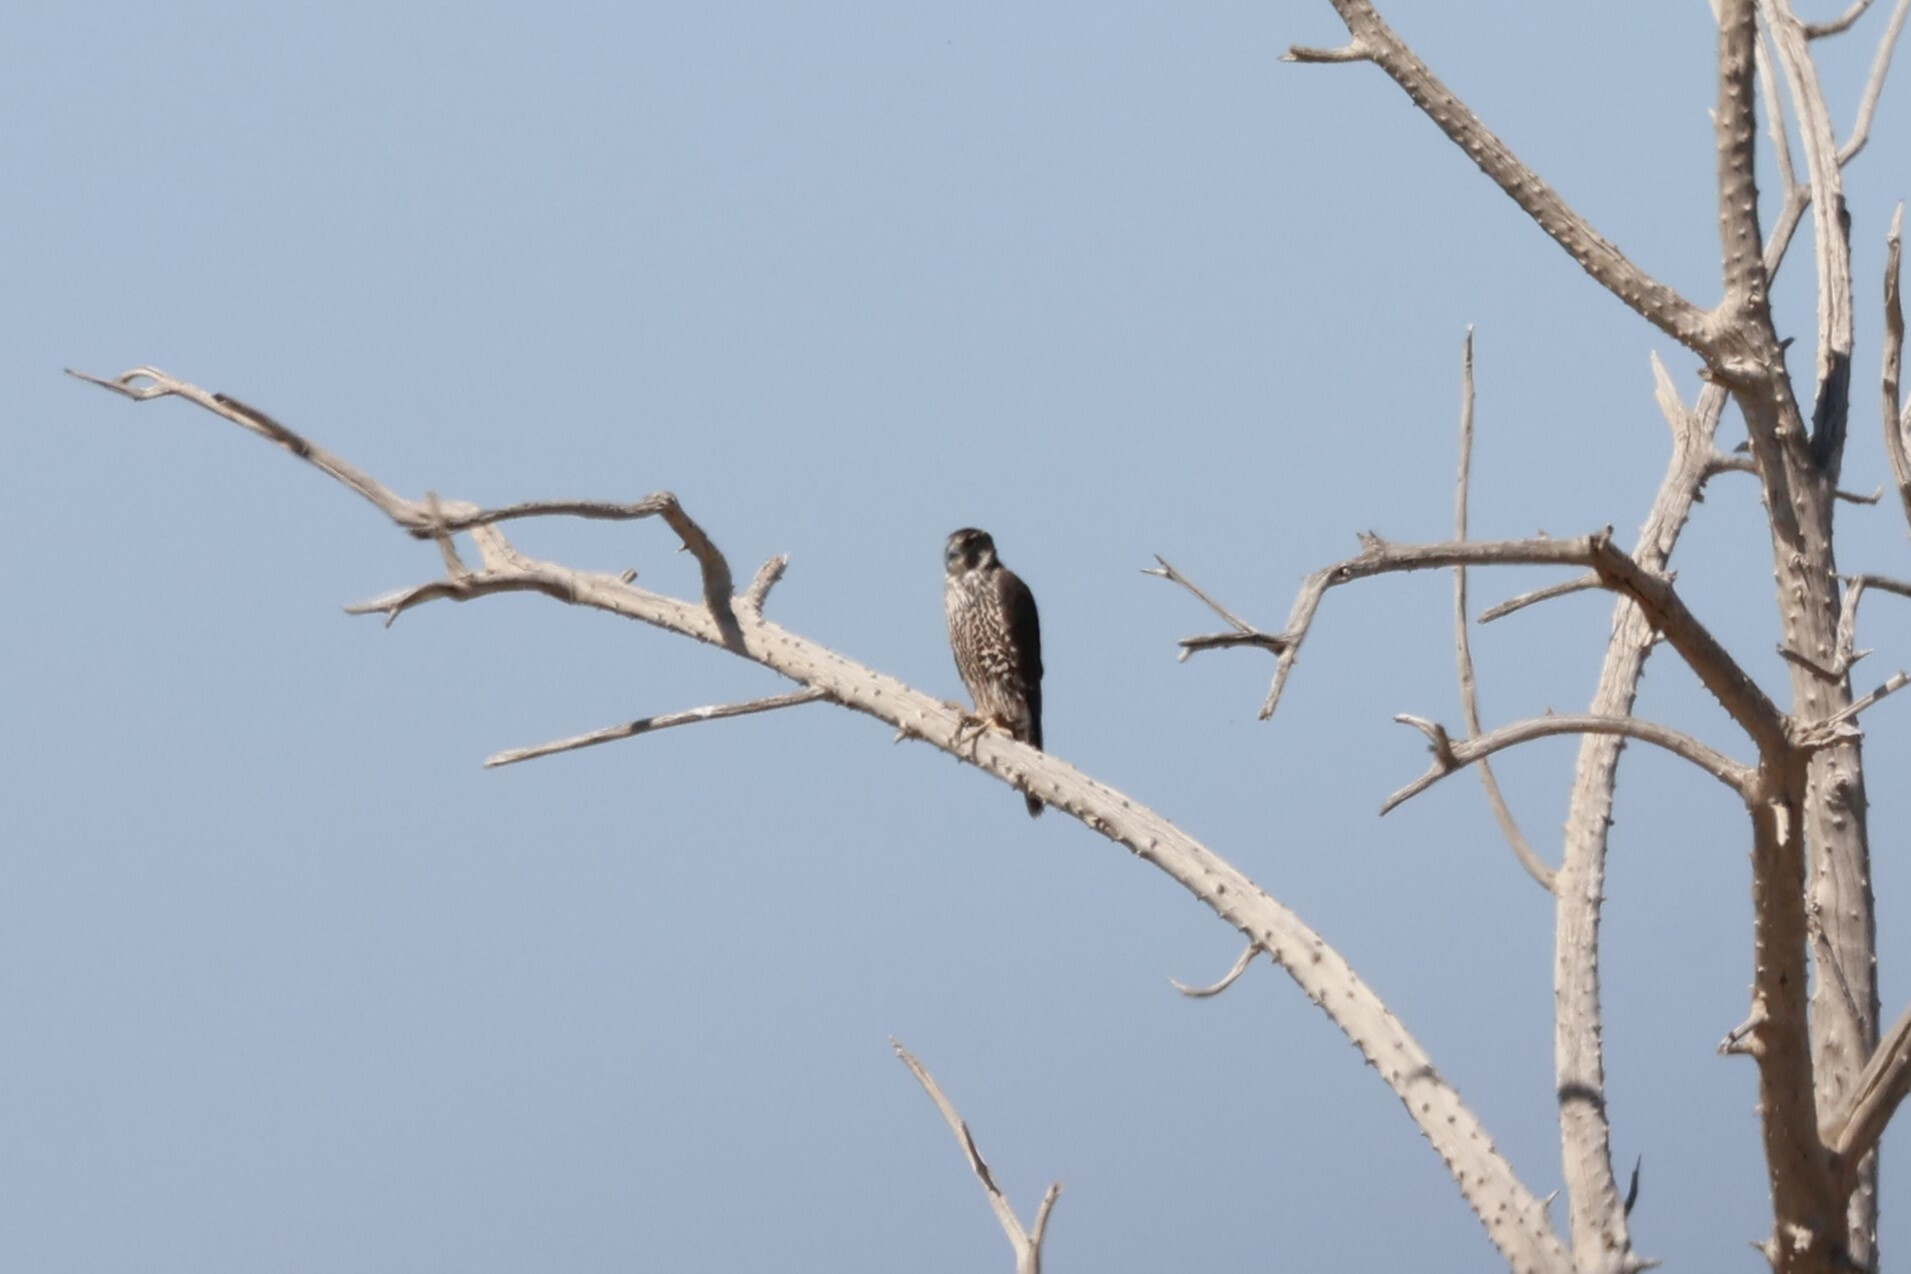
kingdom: Animalia
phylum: Chordata
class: Aves
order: Falconiformes
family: Falconidae
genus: Falco
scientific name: Falco peregrinus
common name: Peregrine falcon
